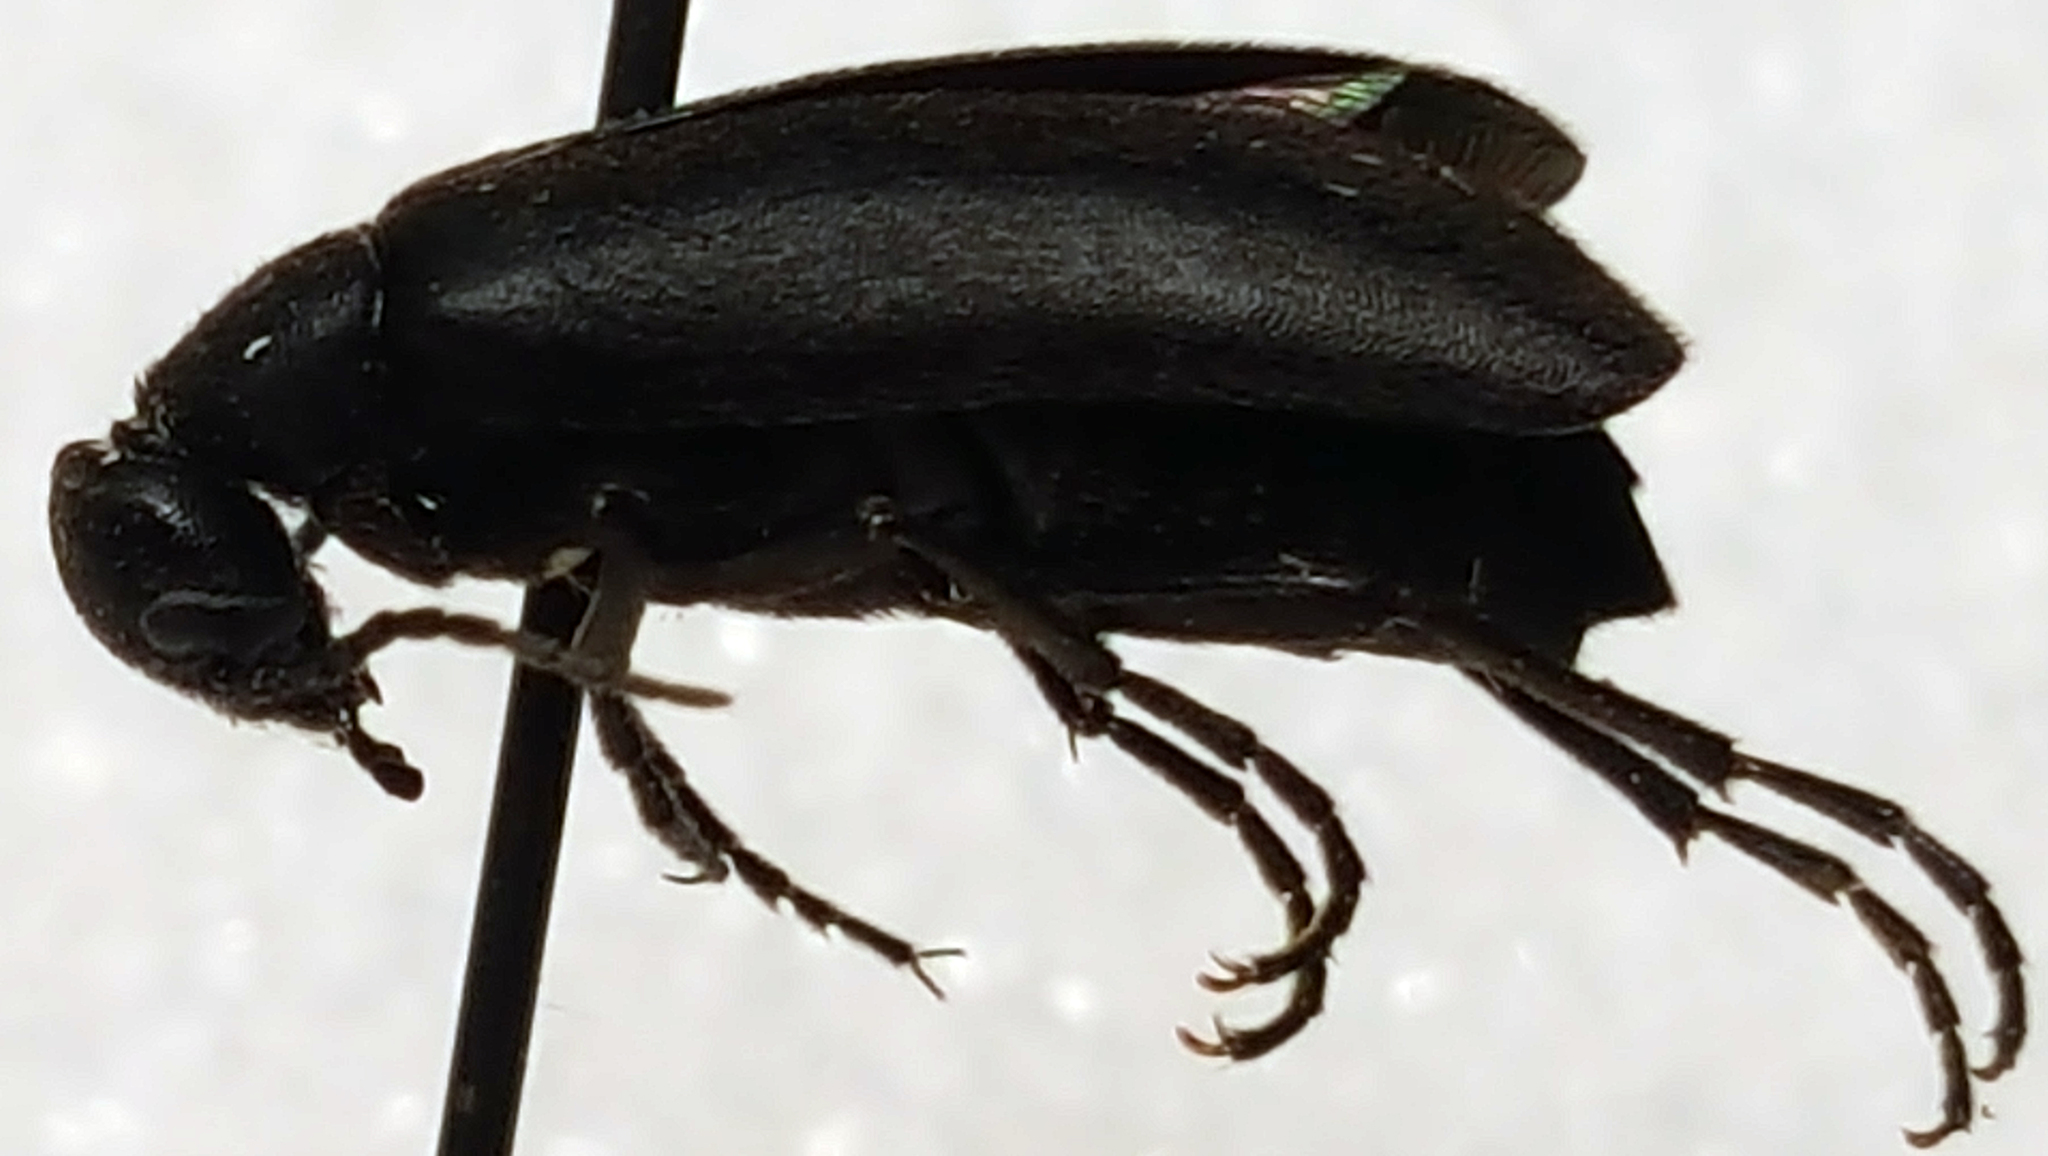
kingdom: Animalia
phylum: Arthropoda
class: Insecta
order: Coleoptera
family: Meloidae
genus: Epicauta
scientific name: Epicauta pensylvanica
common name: Black blister beetle
